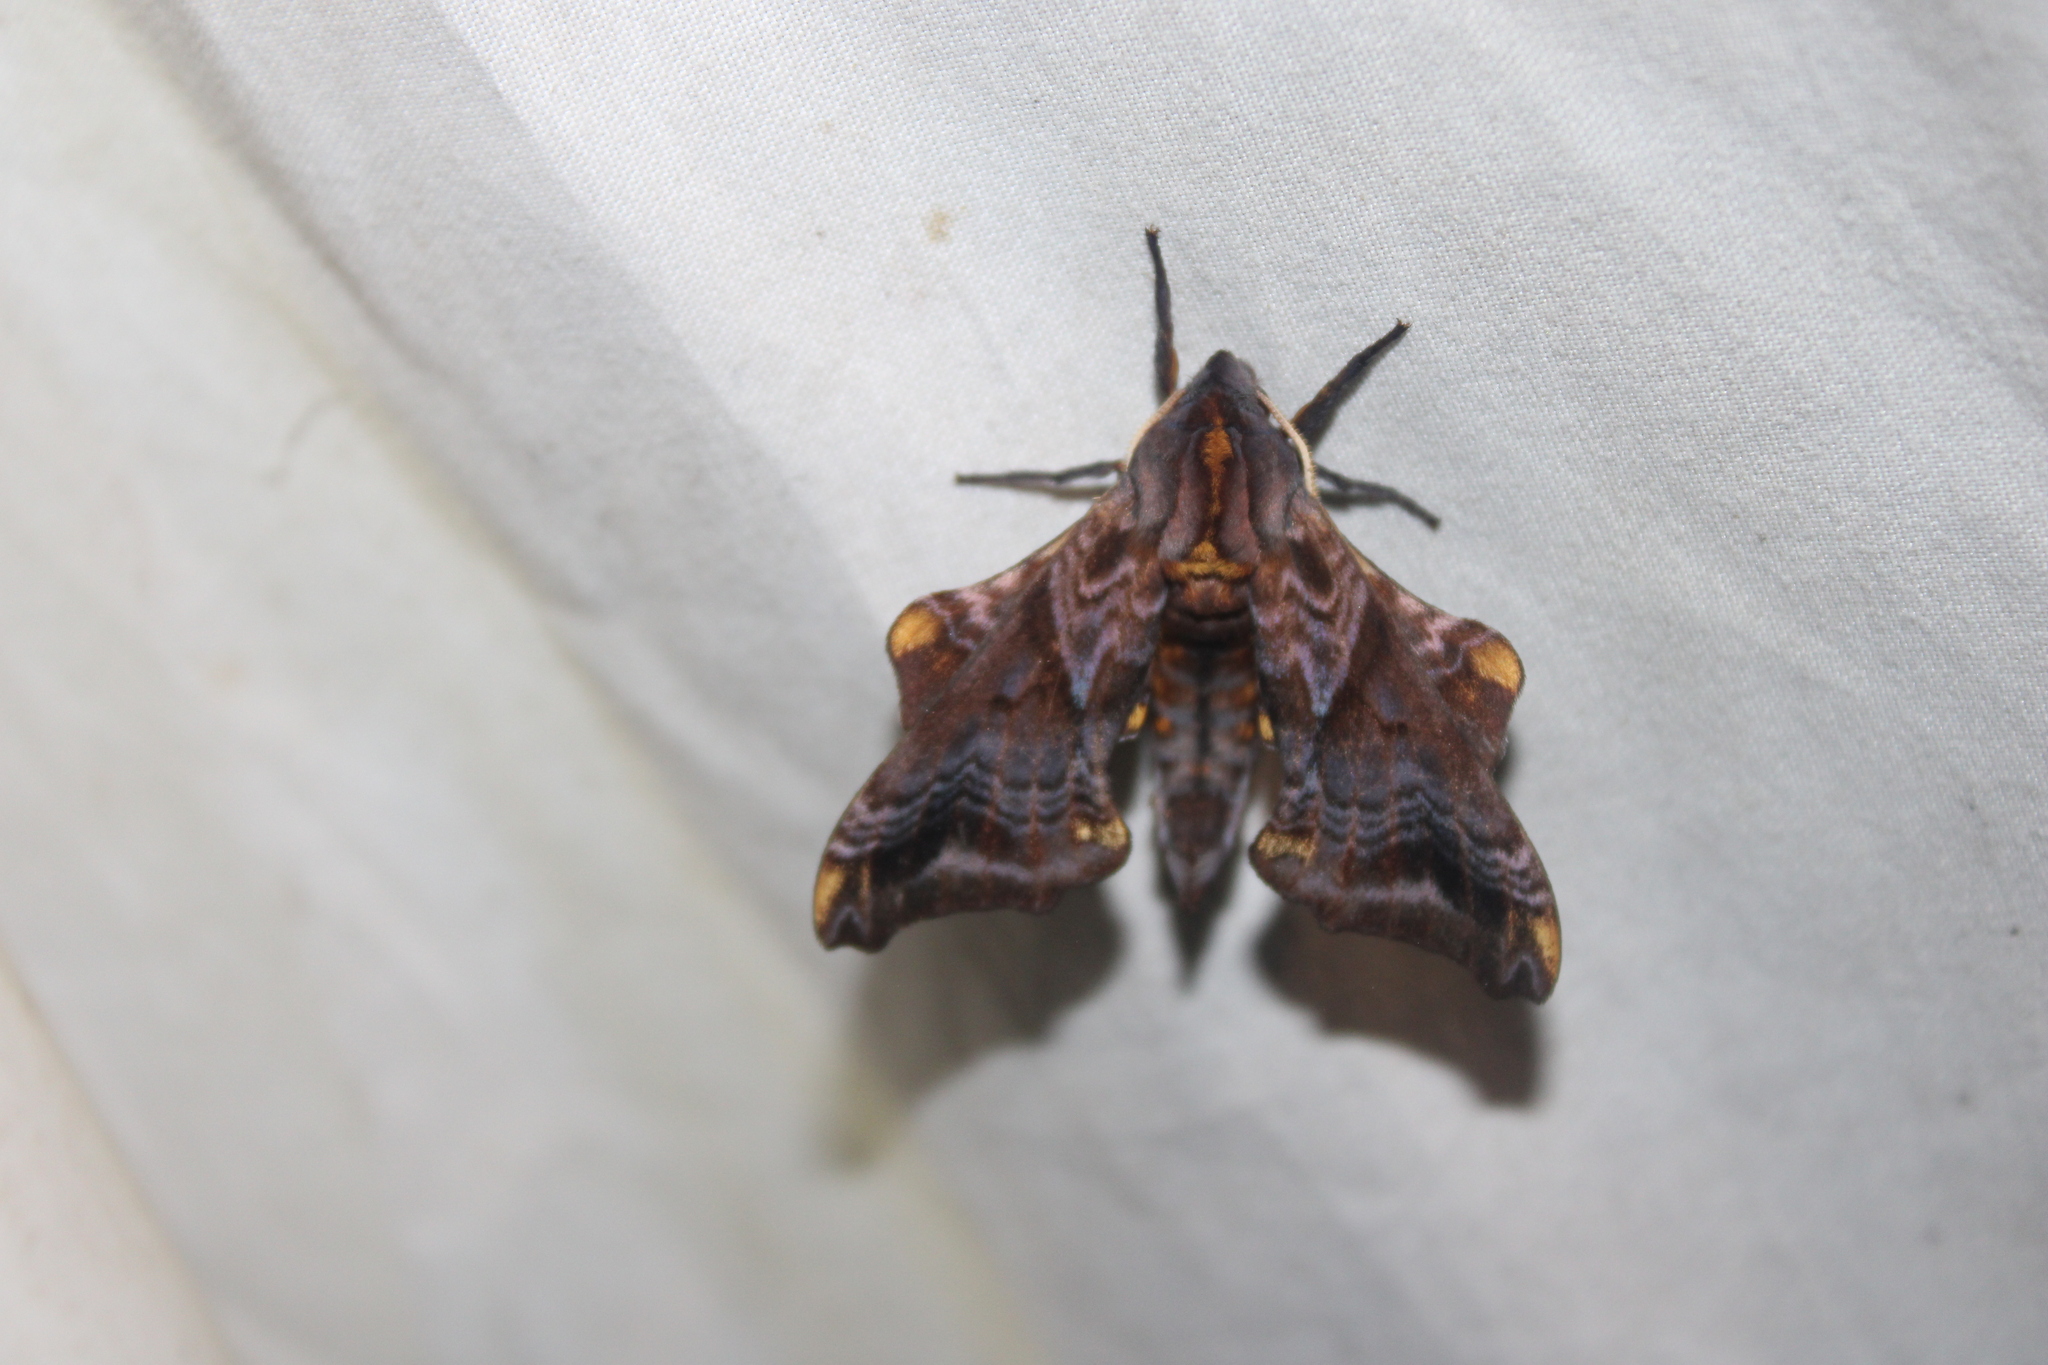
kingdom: Animalia
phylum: Arthropoda
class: Insecta
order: Lepidoptera
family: Sphingidae
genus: Paonias
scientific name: Paonias myops
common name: Small-eyed sphinx
